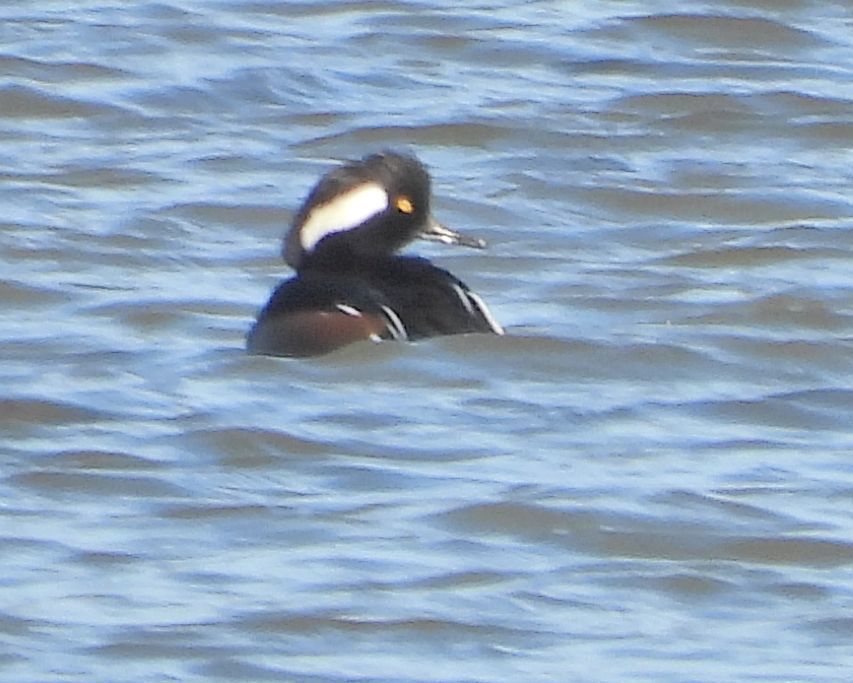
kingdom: Animalia
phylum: Chordata
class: Aves
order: Anseriformes
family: Anatidae
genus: Lophodytes
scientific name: Lophodytes cucullatus
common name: Hooded merganser
